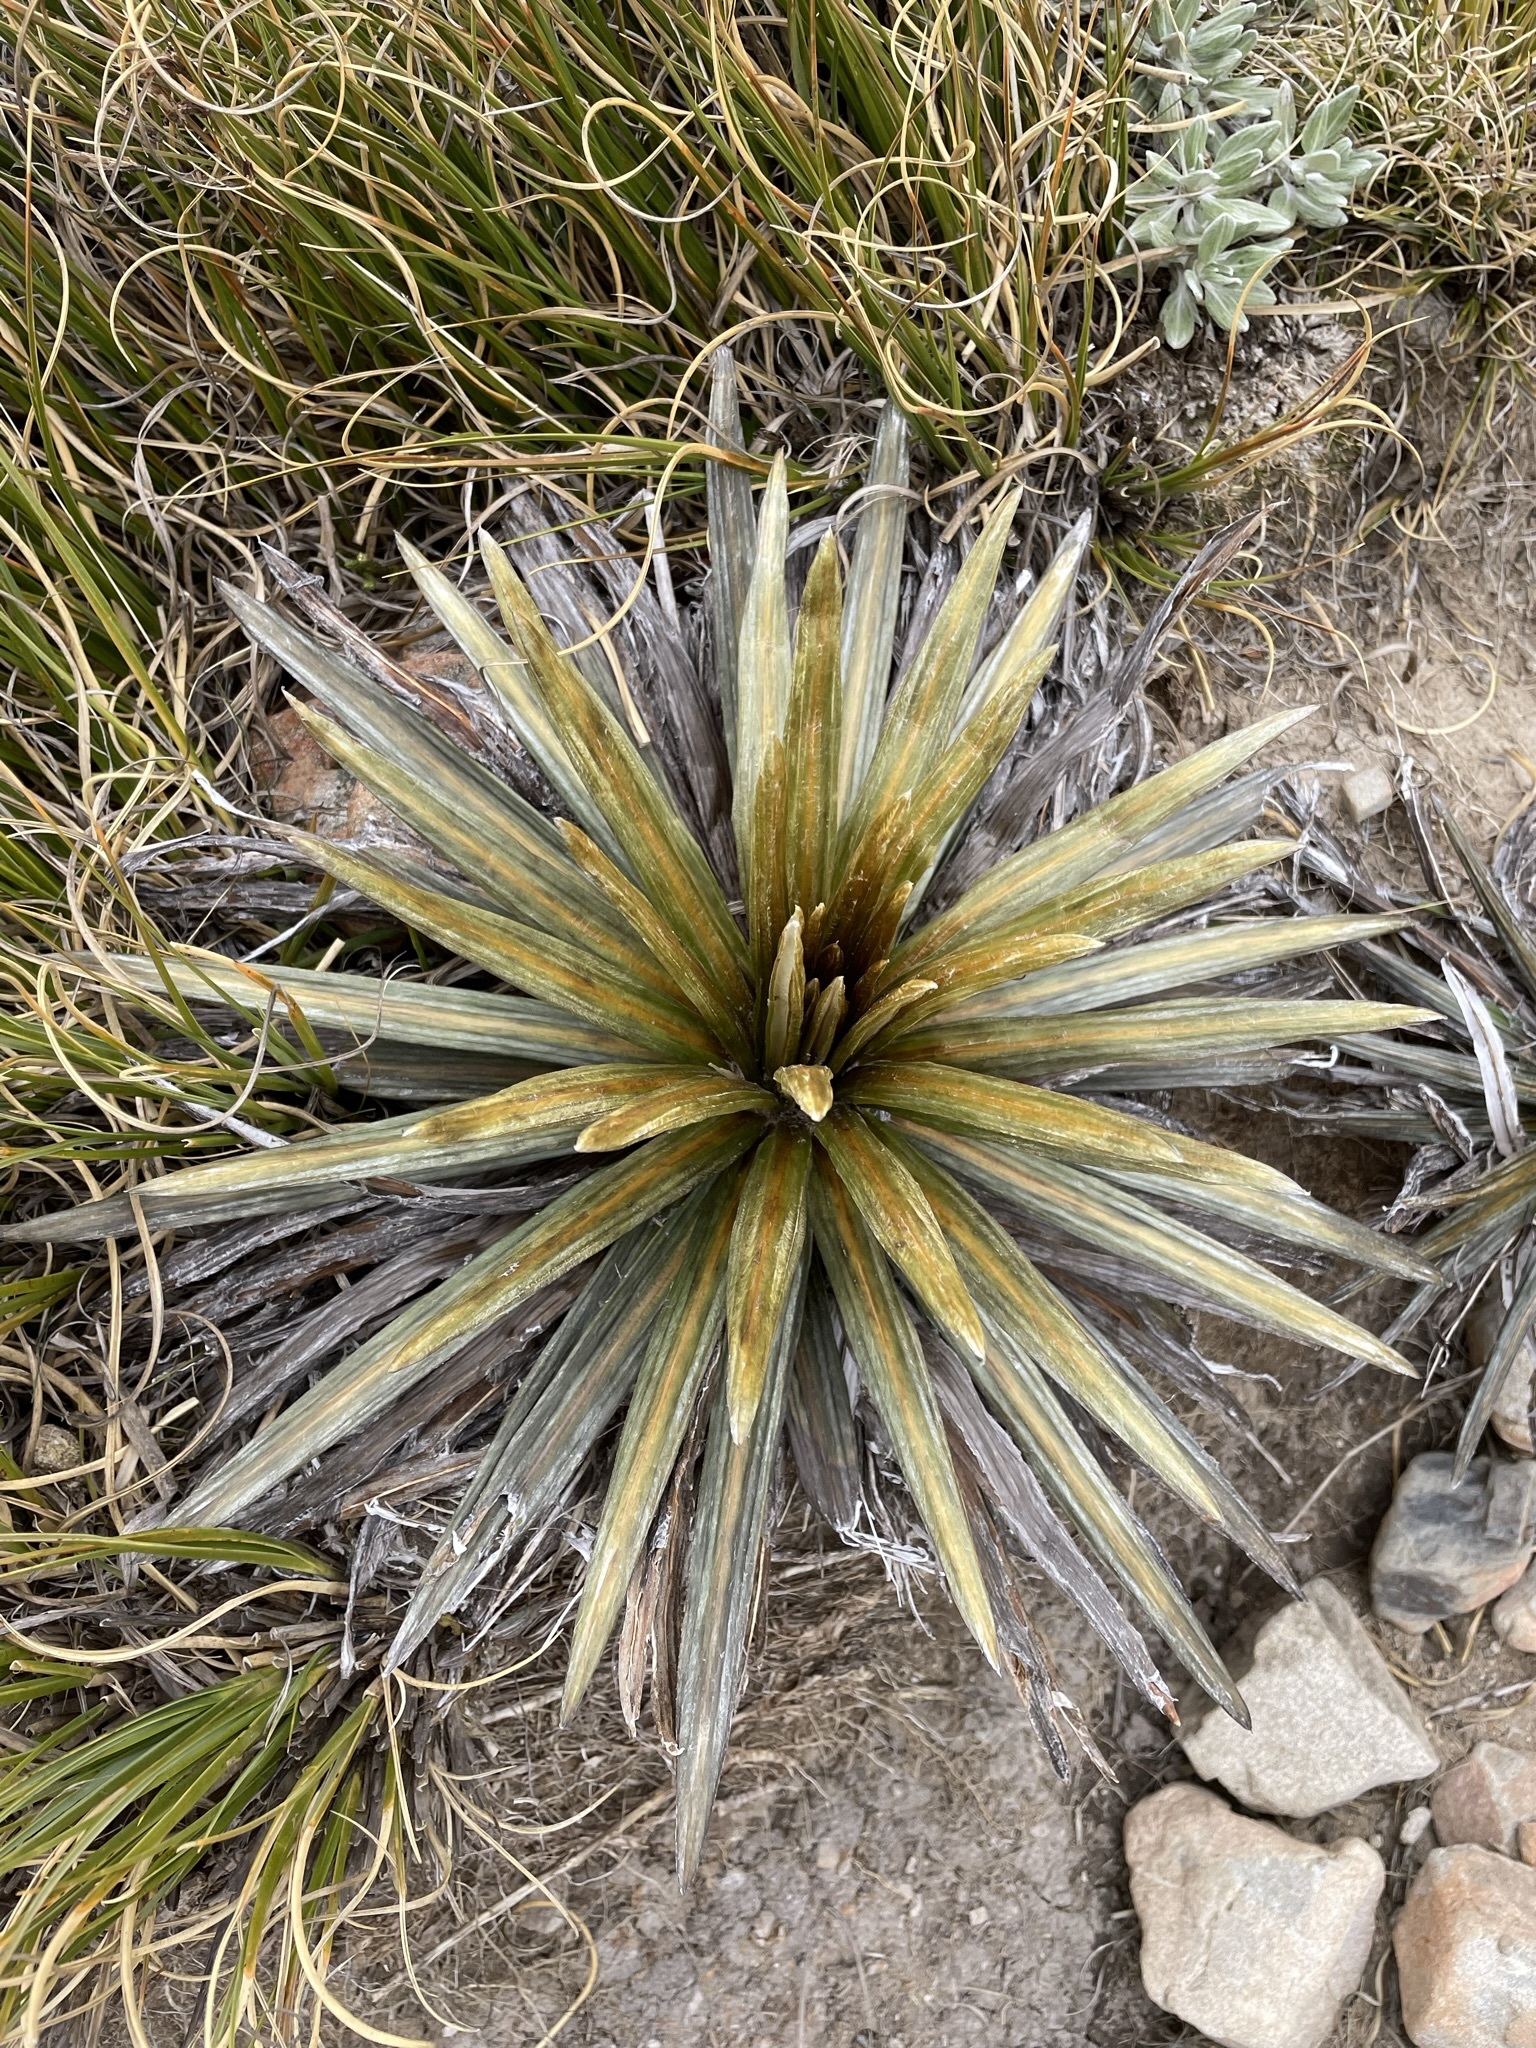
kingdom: Plantae
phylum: Tracheophyta
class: Magnoliopsida
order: Asterales
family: Asteraceae
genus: Celmisia
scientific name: Celmisia armstrongii
